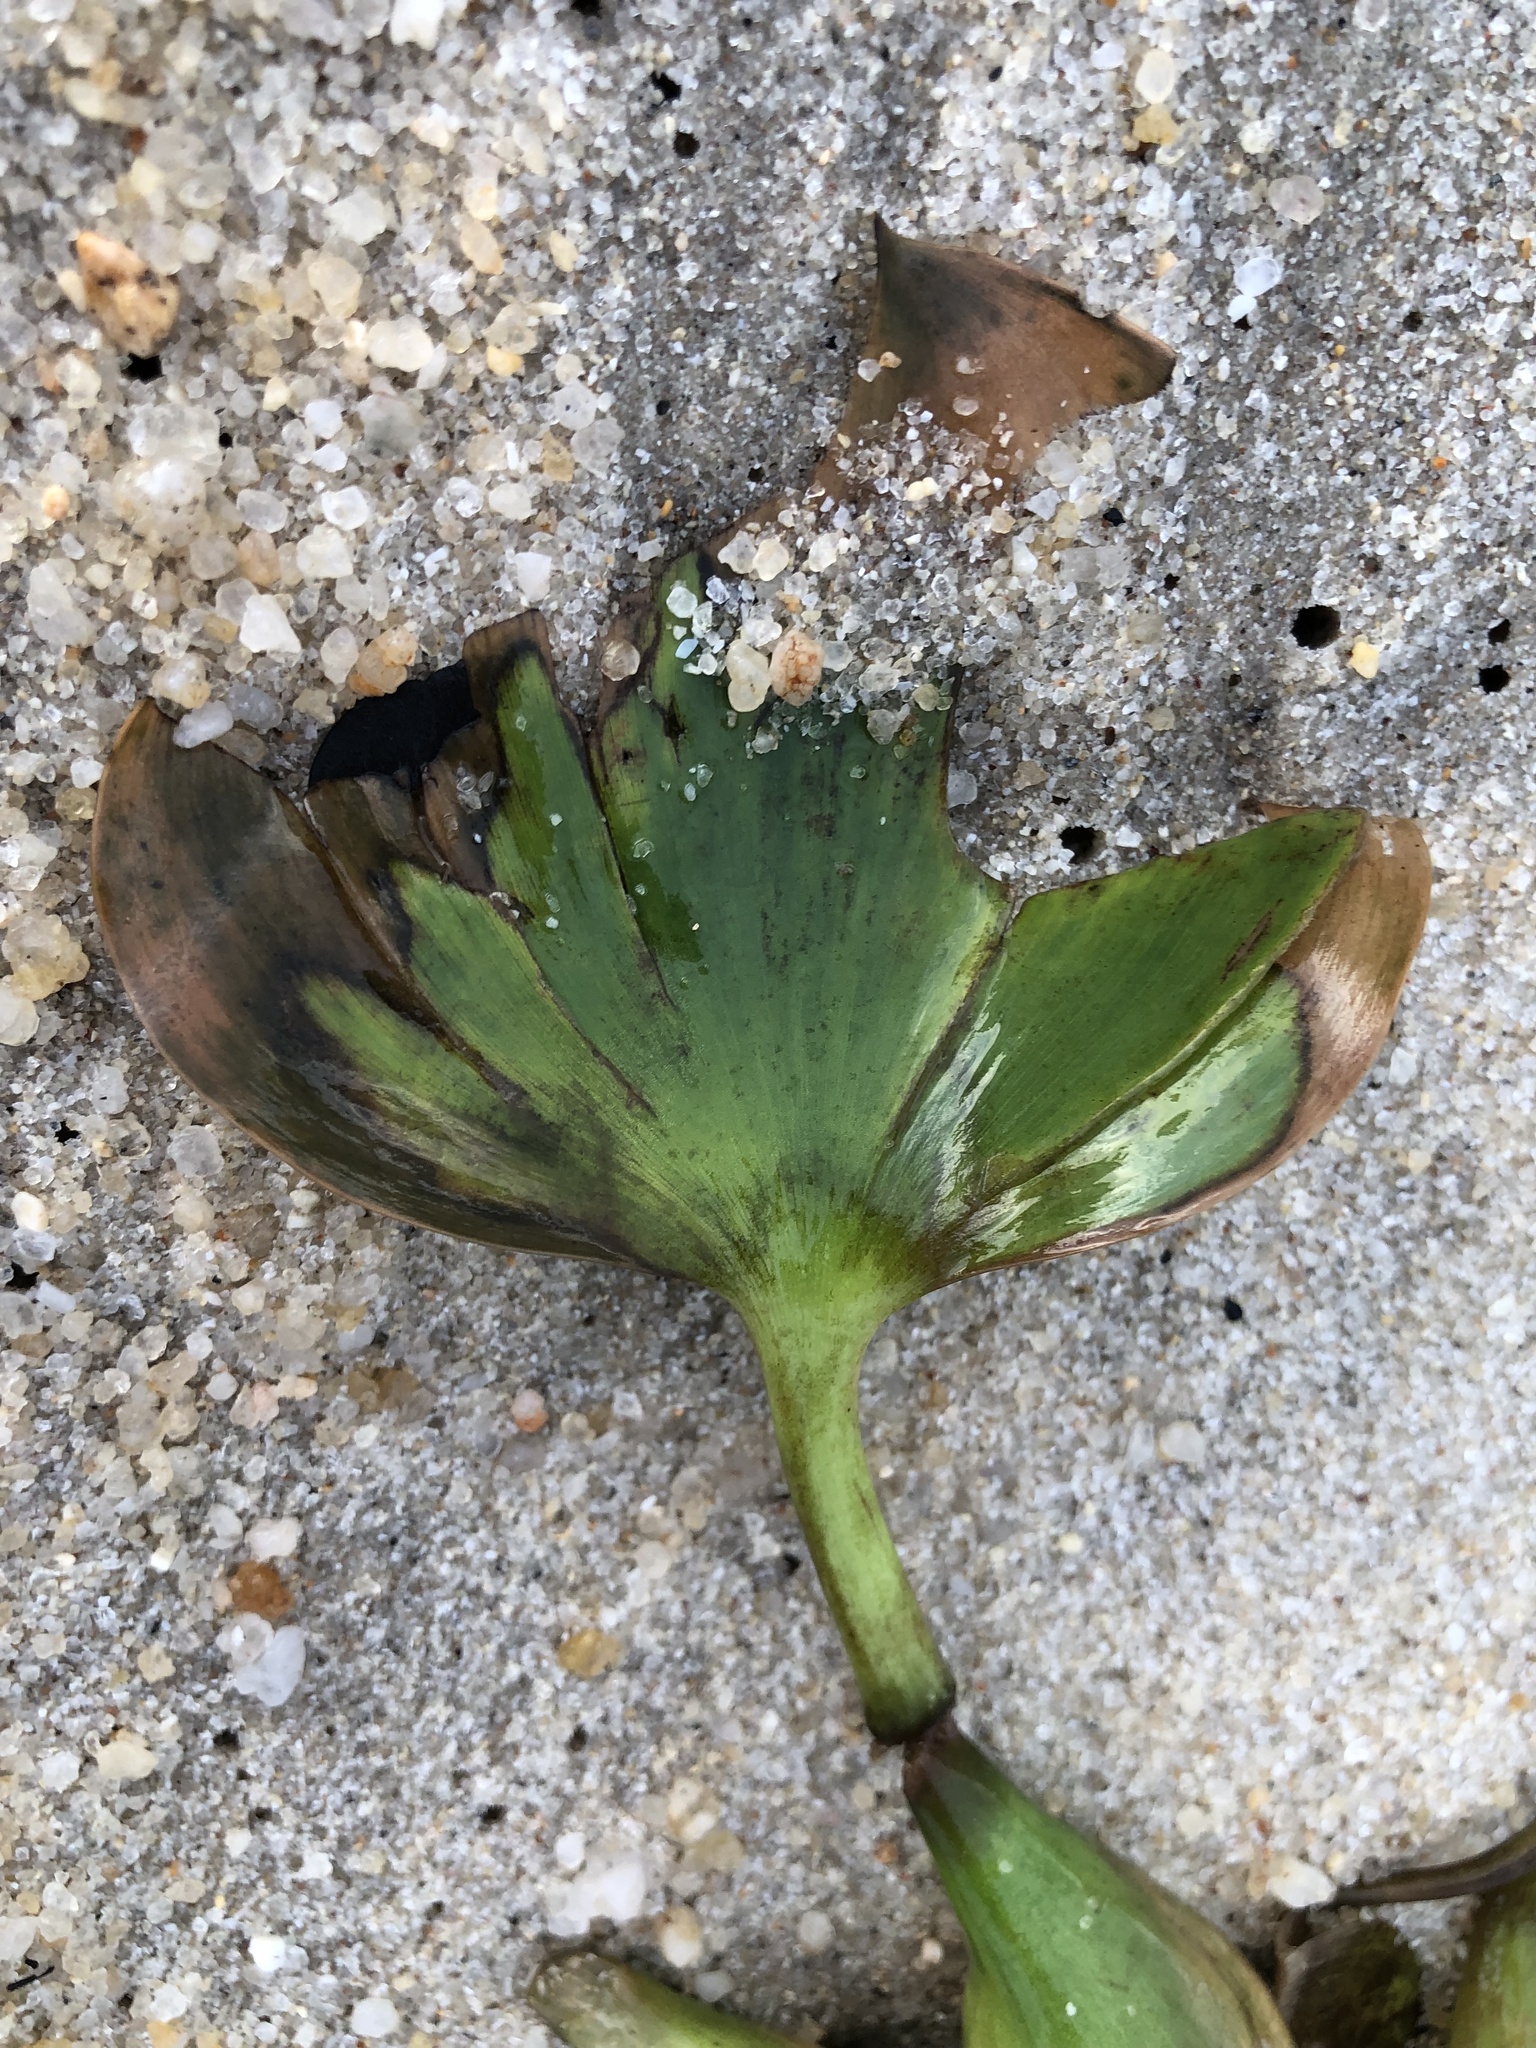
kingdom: Plantae
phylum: Tracheophyta
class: Liliopsida
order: Commelinales
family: Pontederiaceae
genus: Pontederia
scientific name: Pontederia crassipes
